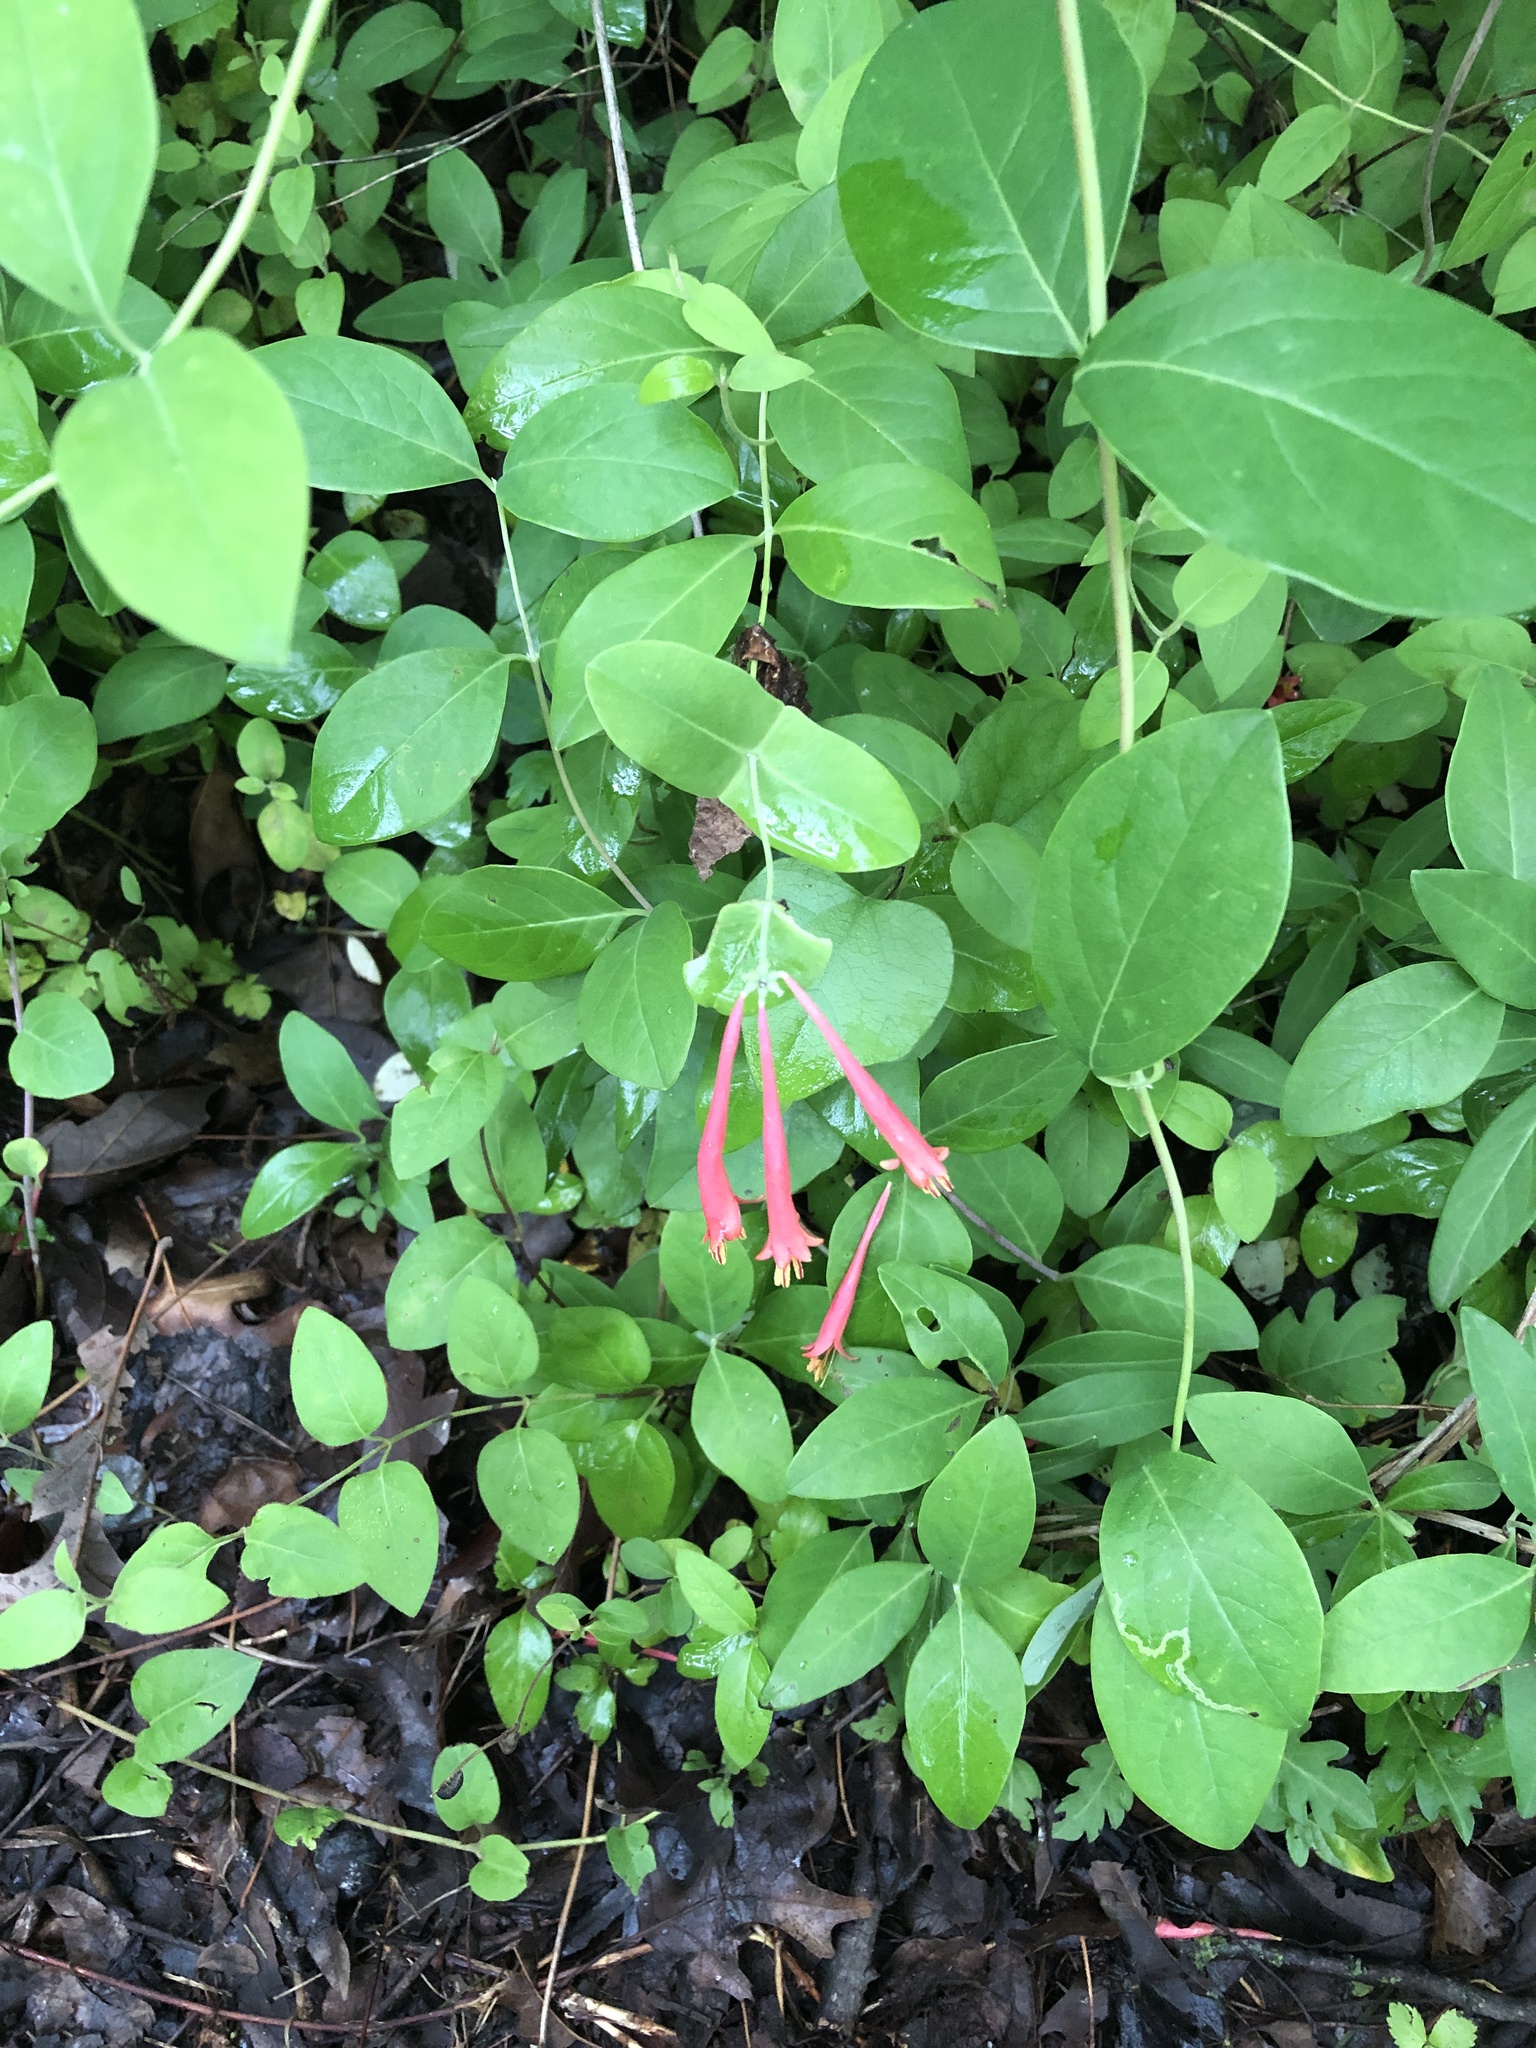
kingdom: Plantae
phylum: Tracheophyta
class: Magnoliopsida
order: Dipsacales
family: Caprifoliaceae
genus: Lonicera
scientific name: Lonicera sempervirens
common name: Coral honeysuckle
